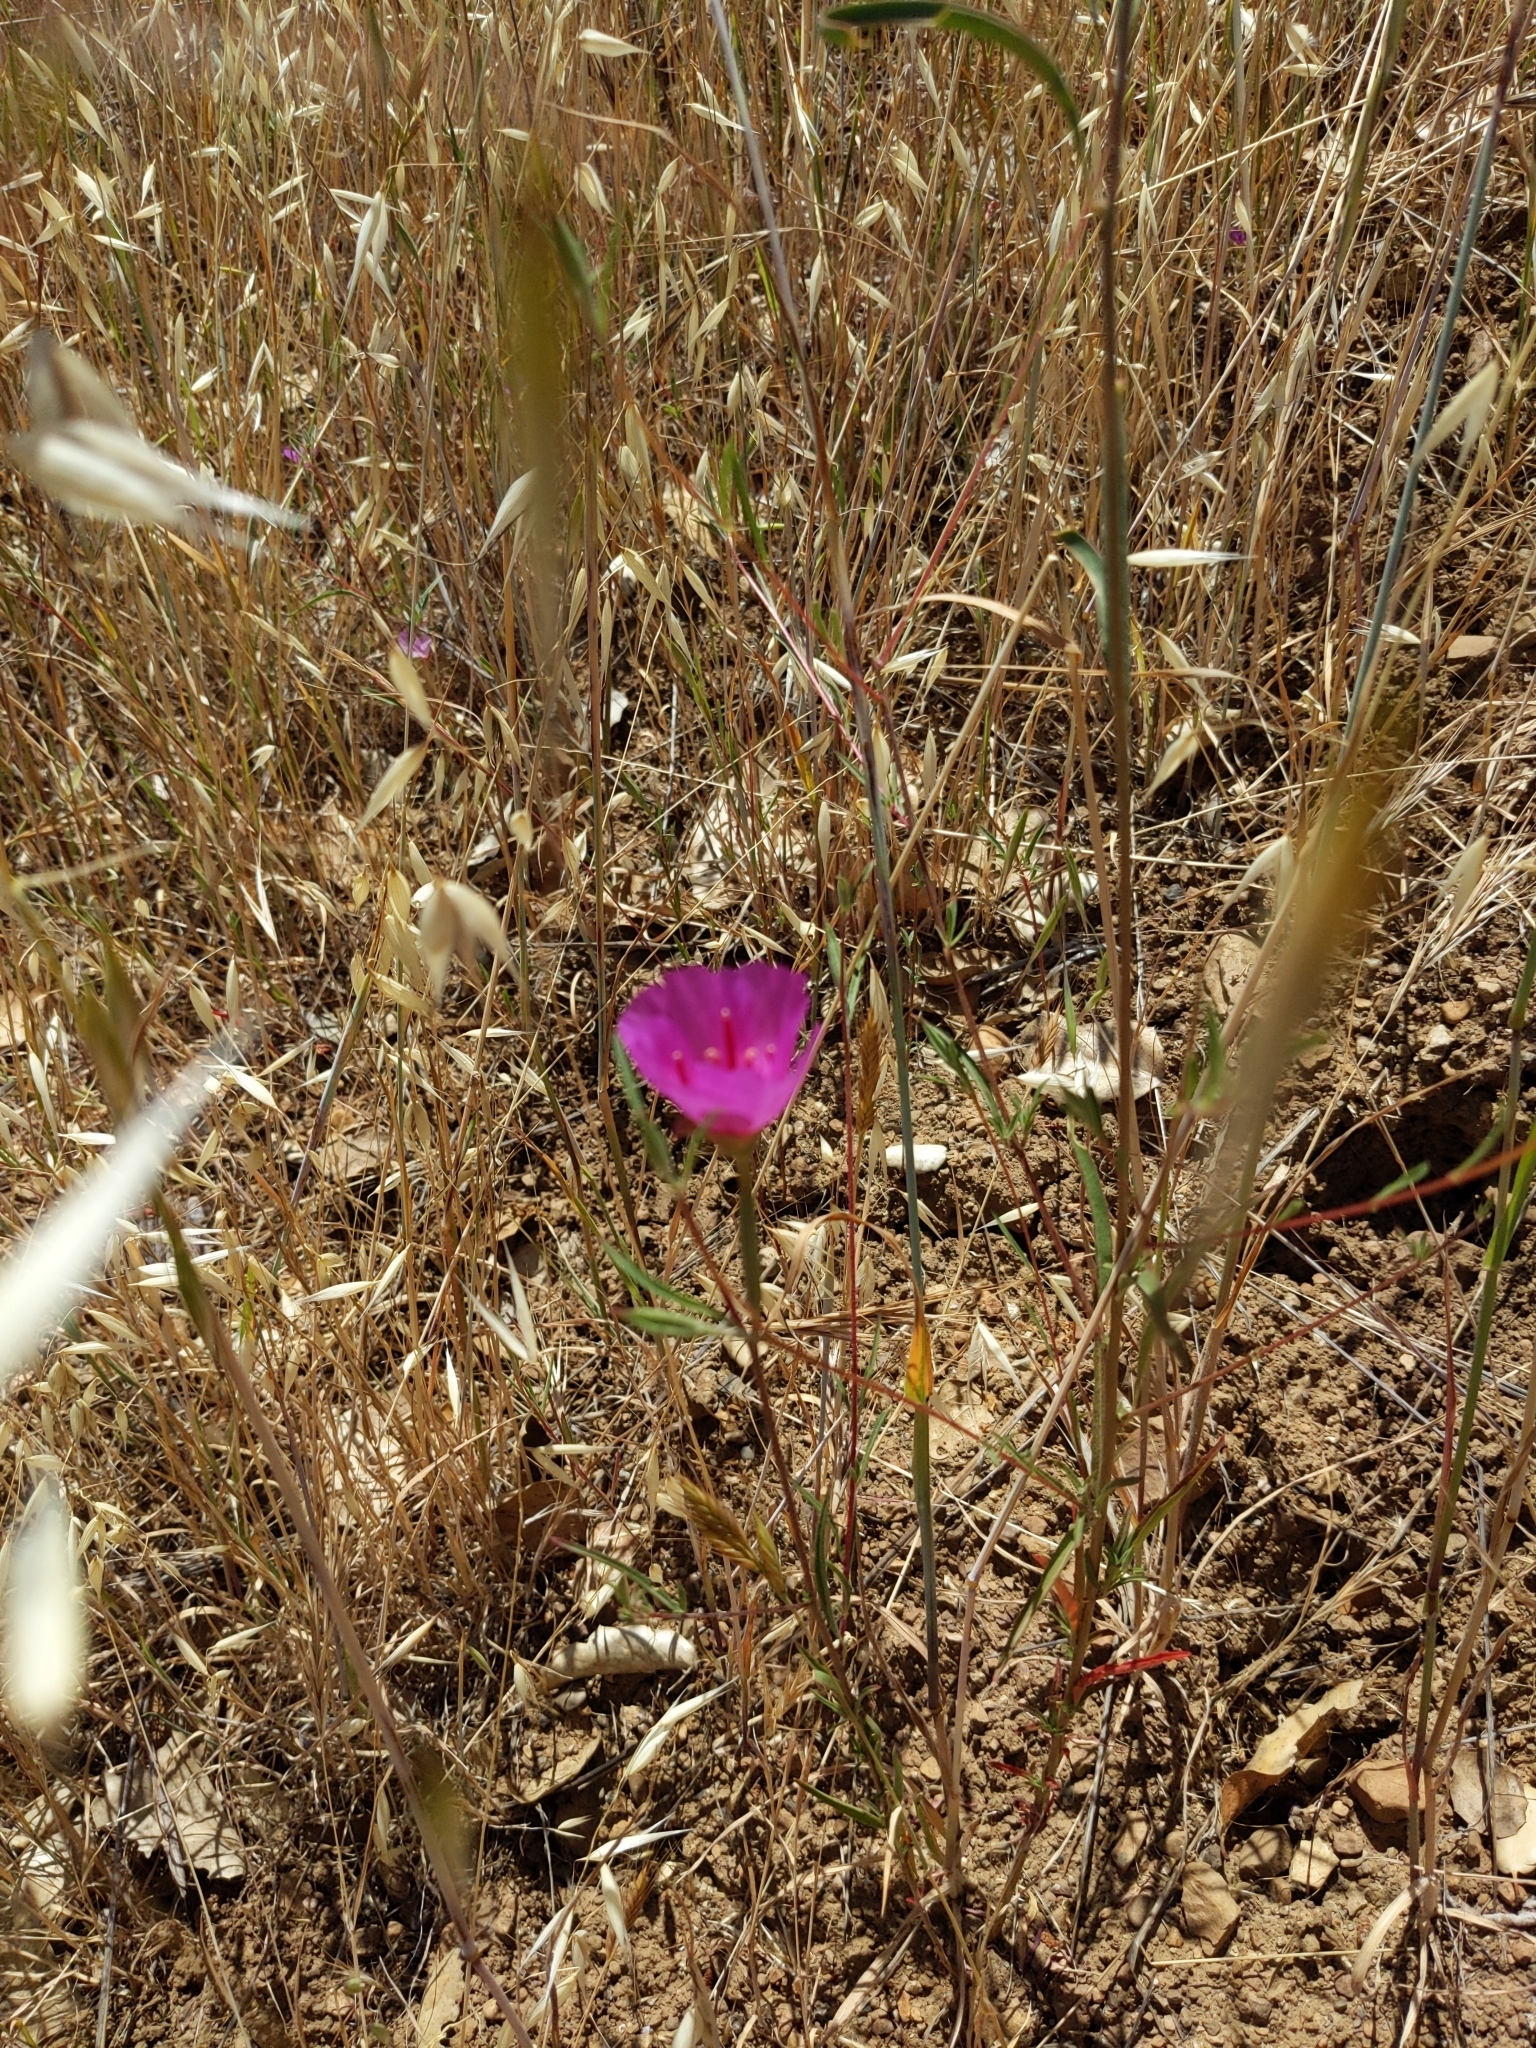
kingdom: Plantae
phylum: Tracheophyta
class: Magnoliopsida
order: Myrtales
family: Onagraceae
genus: Clarkia
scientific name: Clarkia rubicunda
